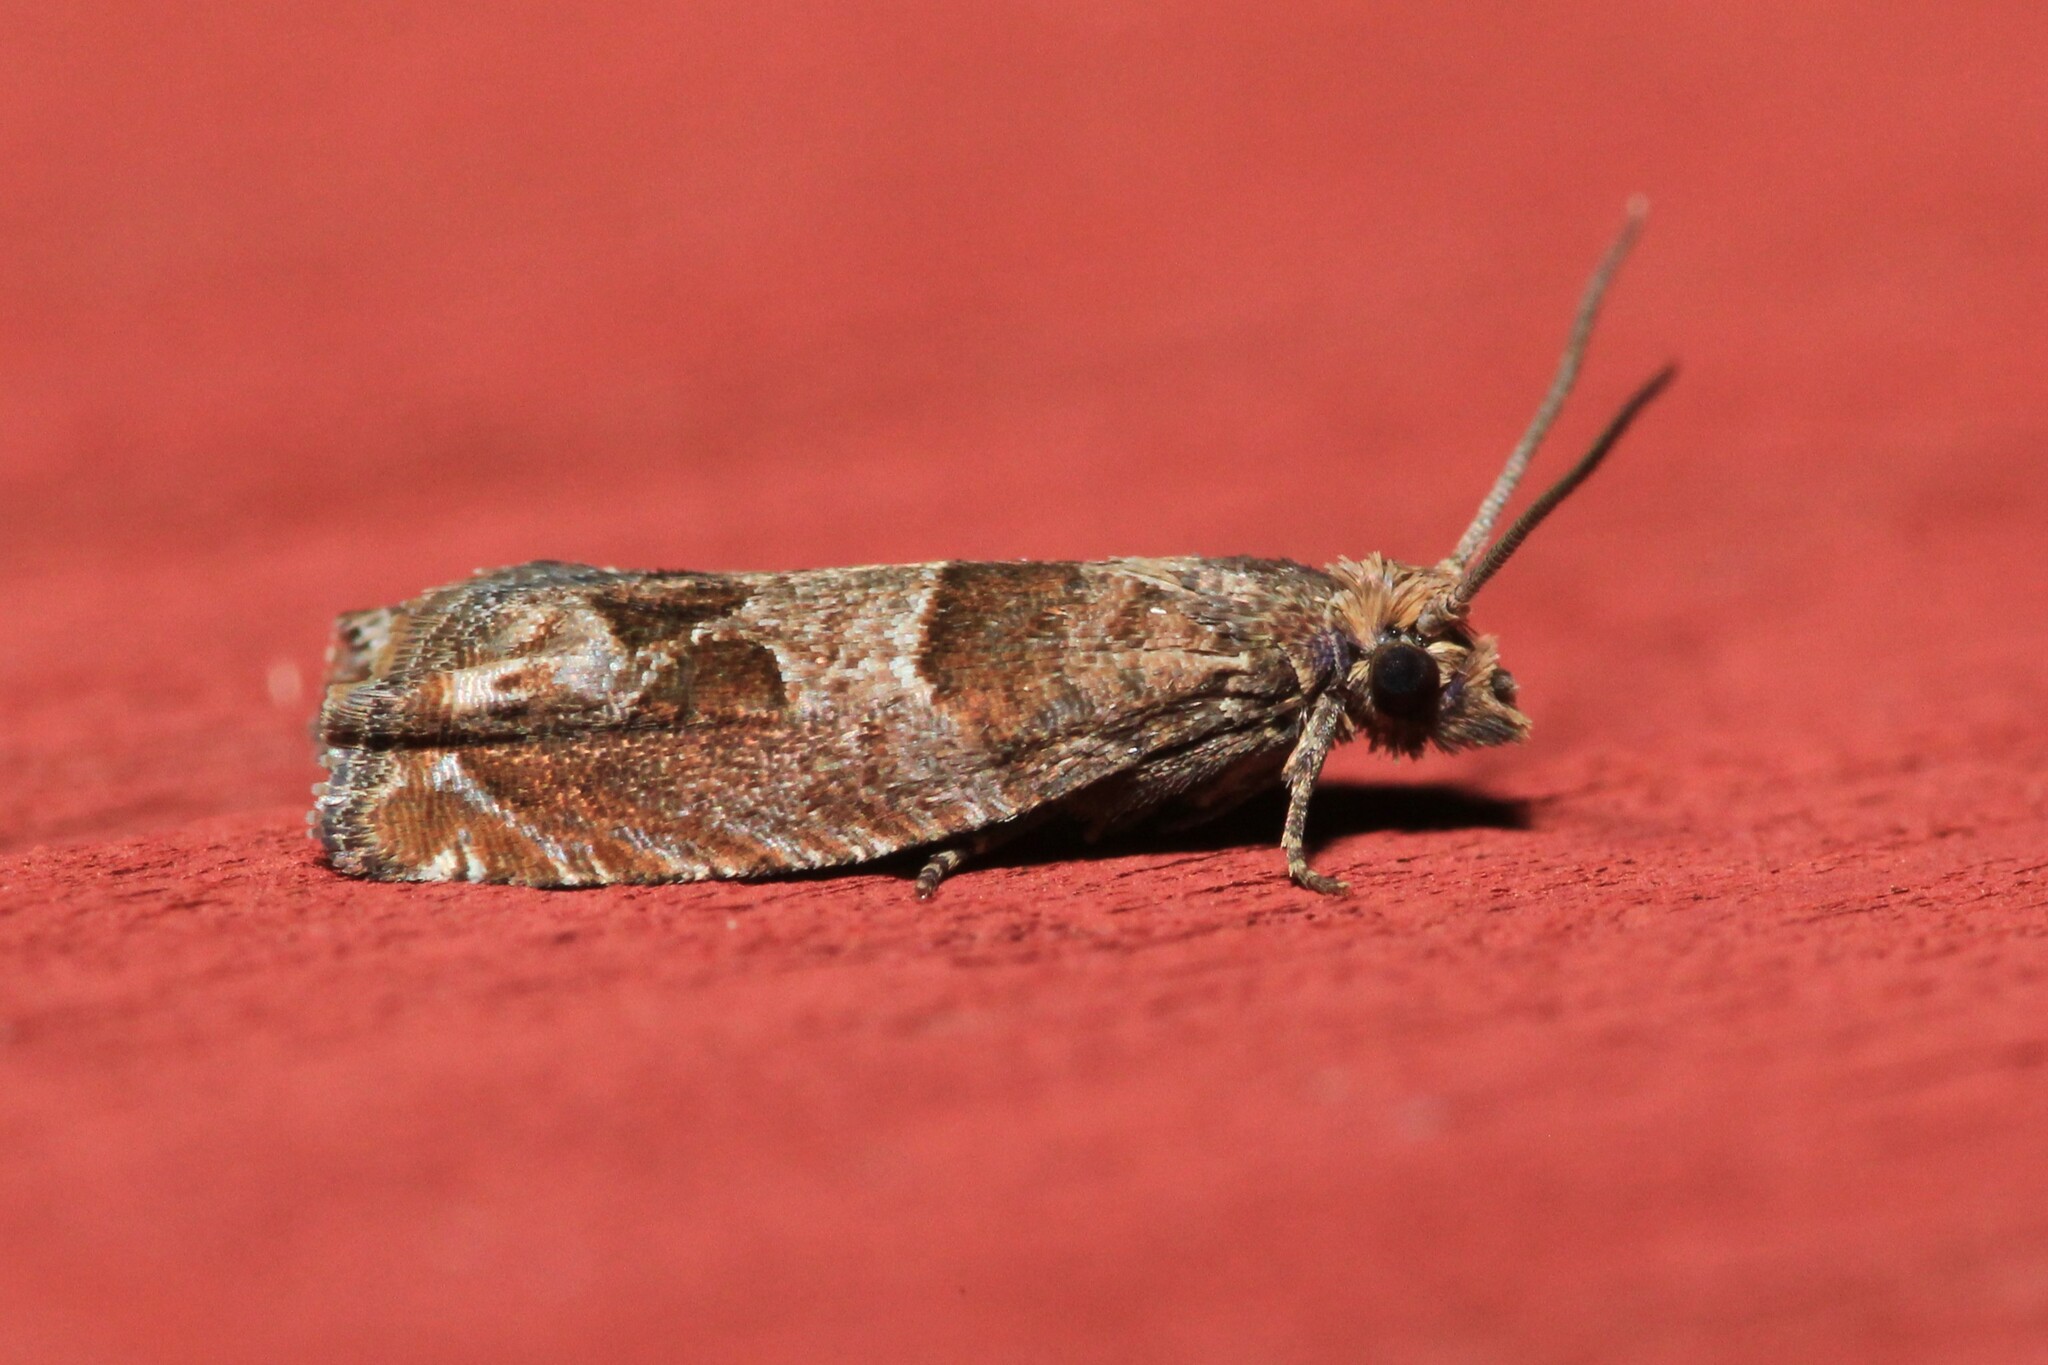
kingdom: Animalia
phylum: Arthropoda
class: Insecta
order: Lepidoptera
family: Tortricidae
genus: Sonia
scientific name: Sonia canadana
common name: Canadian sonia moth
